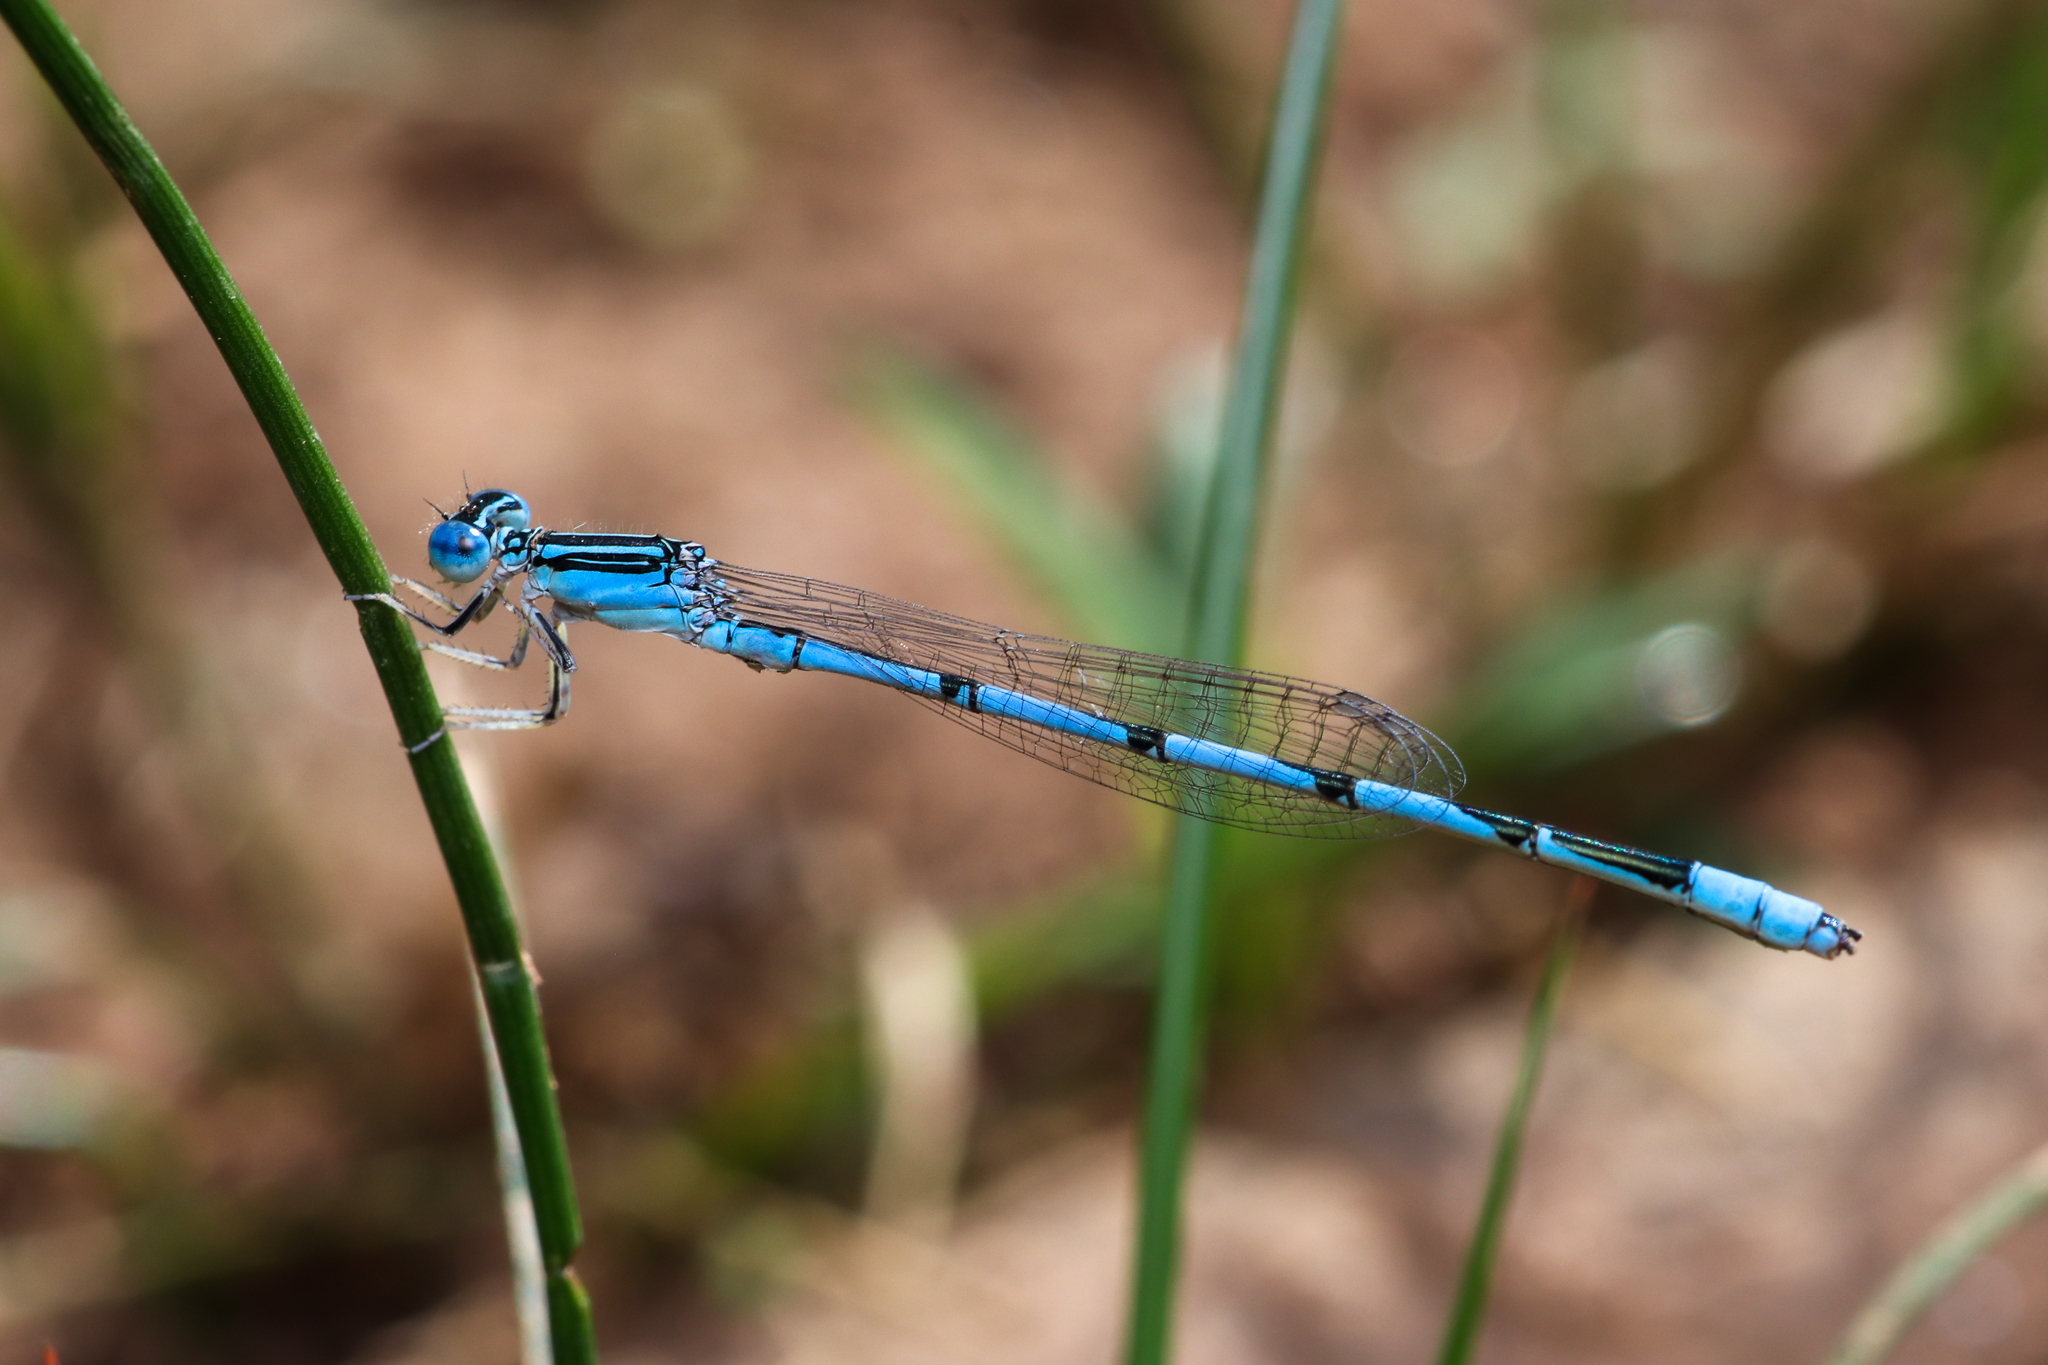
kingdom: Animalia
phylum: Arthropoda
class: Insecta
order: Odonata
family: Coenagrionidae
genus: Enallagma
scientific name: Enallagma basidens
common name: Double-striped bluet
